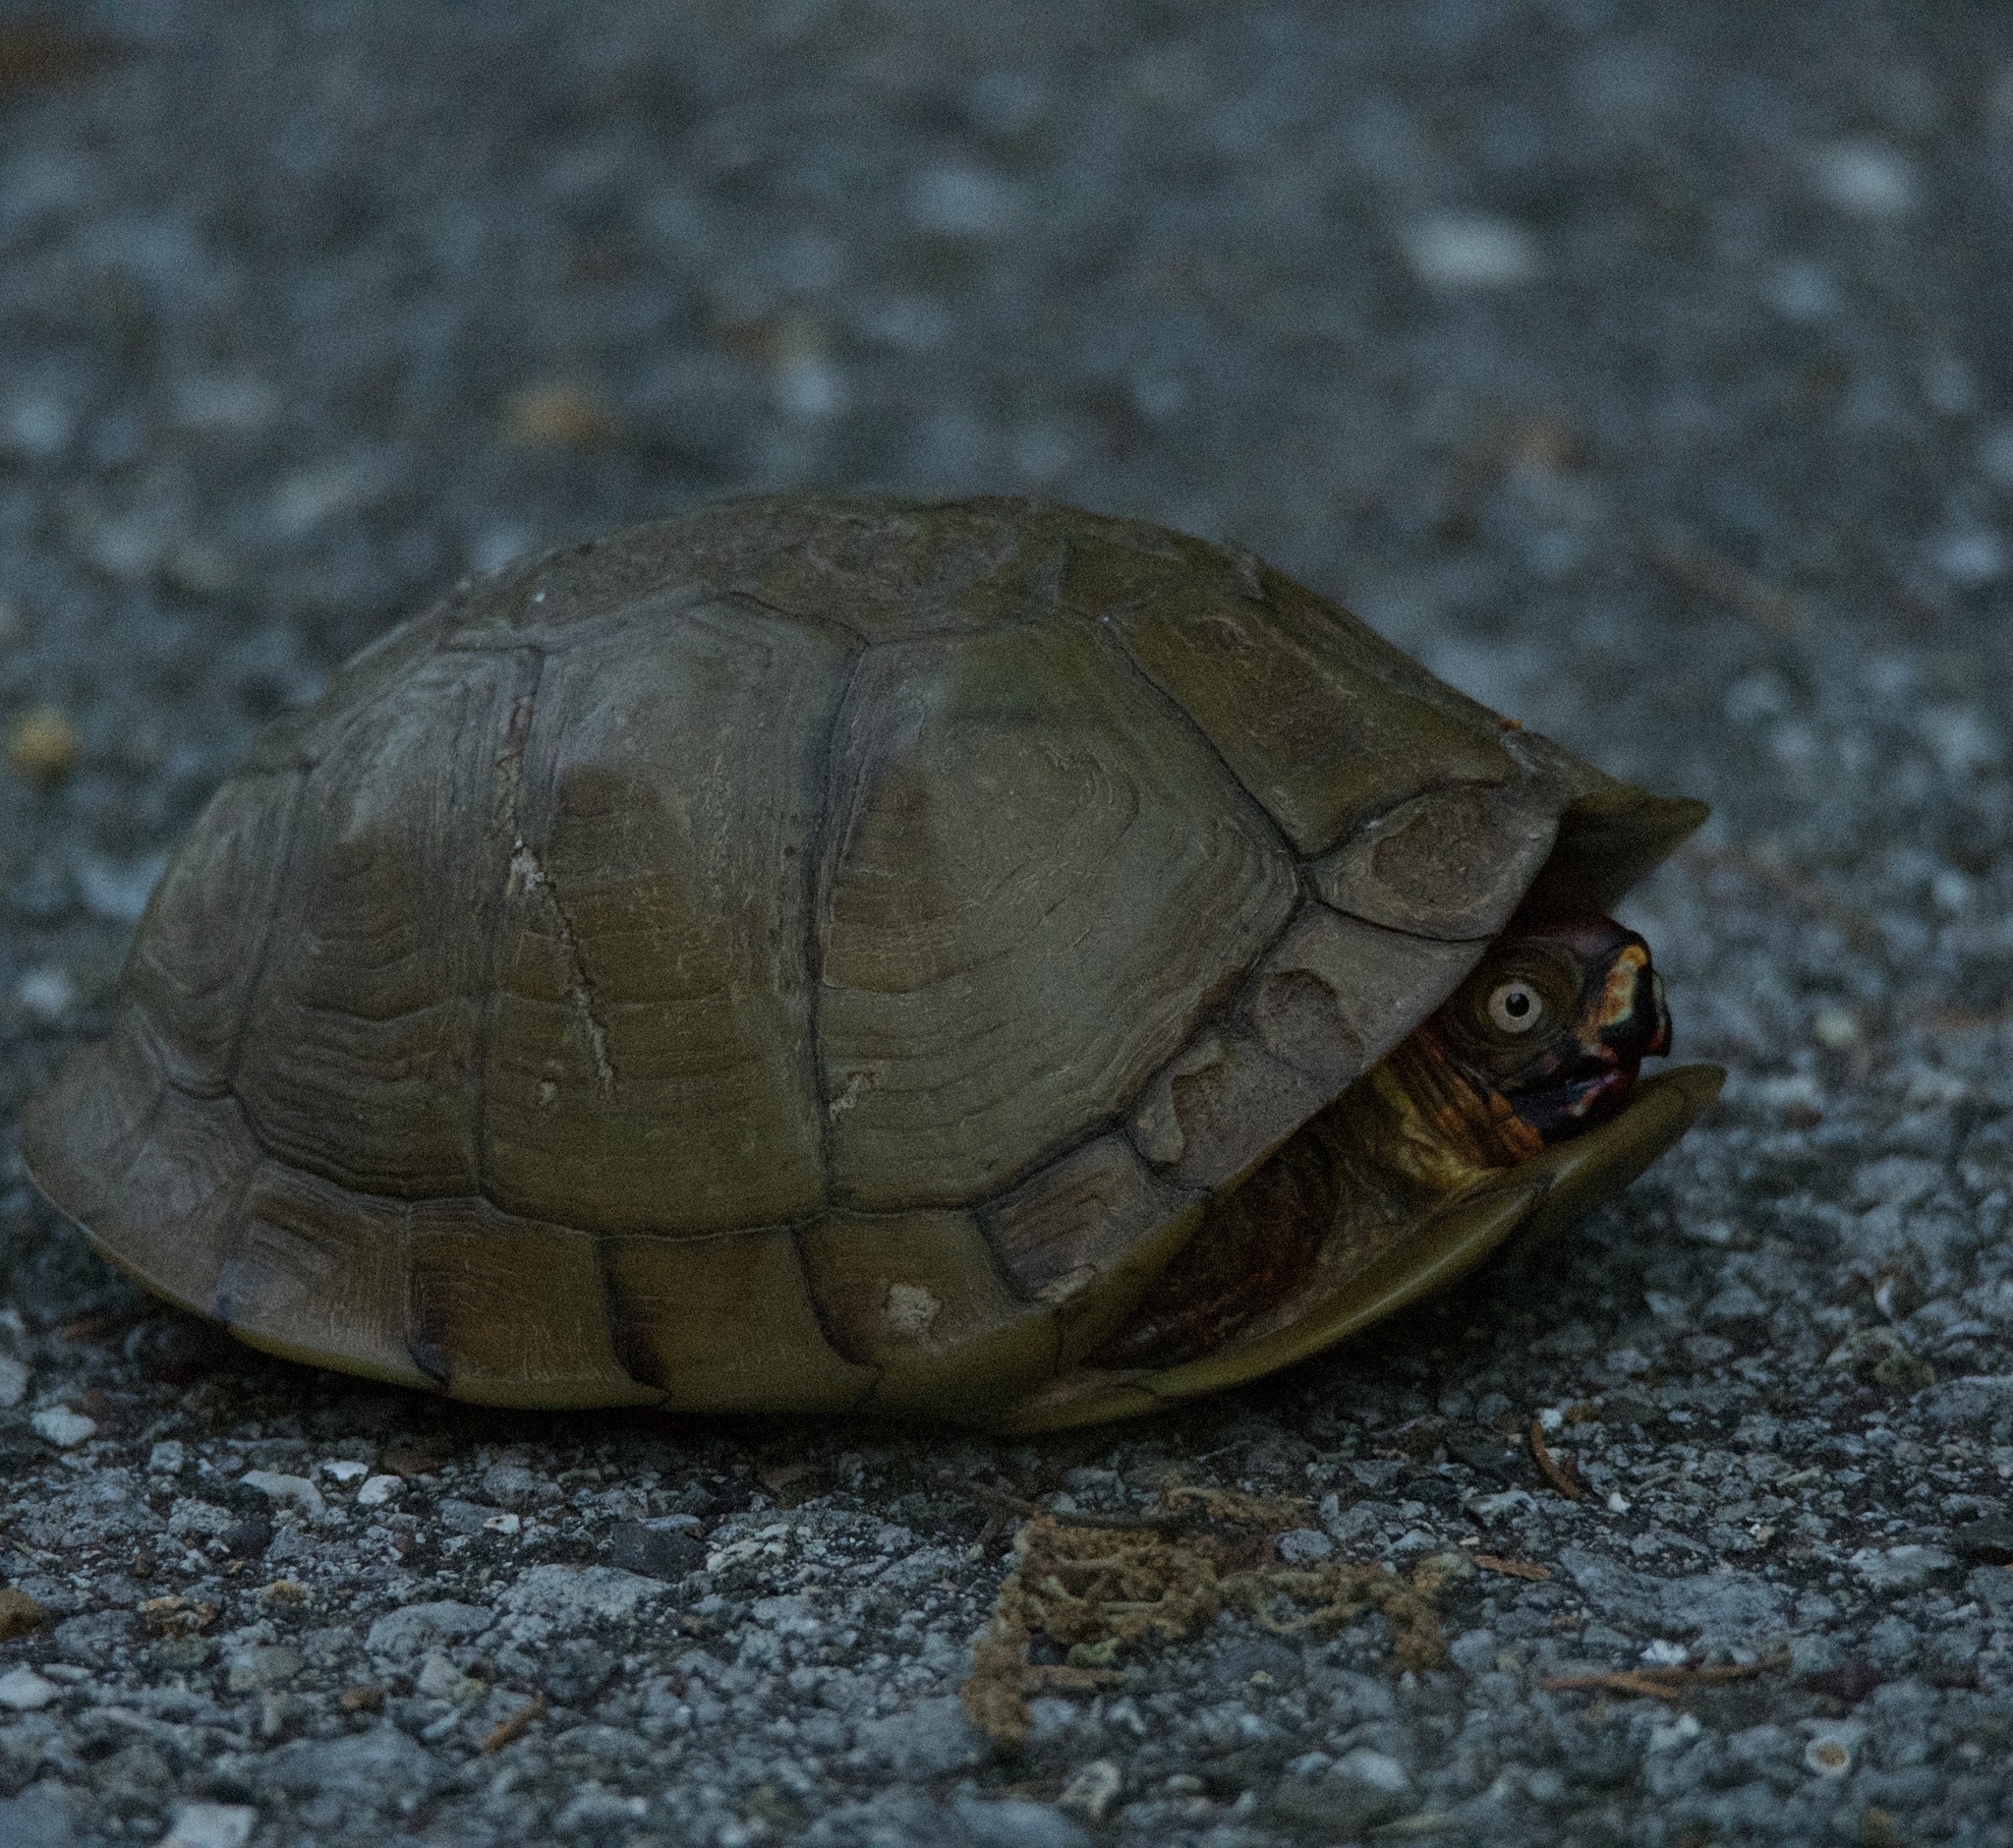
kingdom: Animalia
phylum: Chordata
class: Testudines
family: Emydidae
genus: Terrapene
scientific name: Terrapene carolina
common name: Common box turtle
